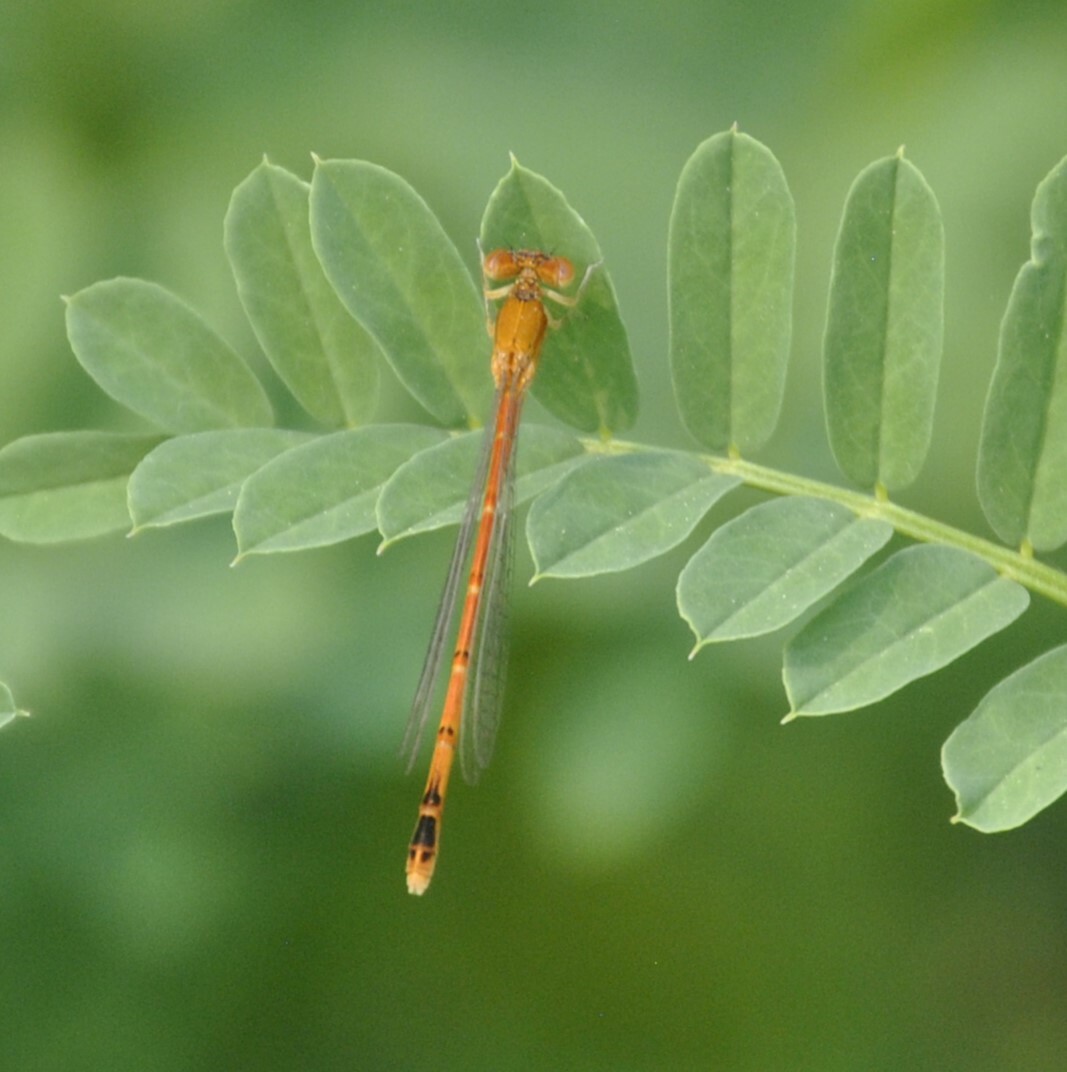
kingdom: Animalia
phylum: Arthropoda
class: Insecta
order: Odonata
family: Coenagrionidae
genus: Amphiagrion
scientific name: Amphiagrion saucium
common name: Eastern red damsel
